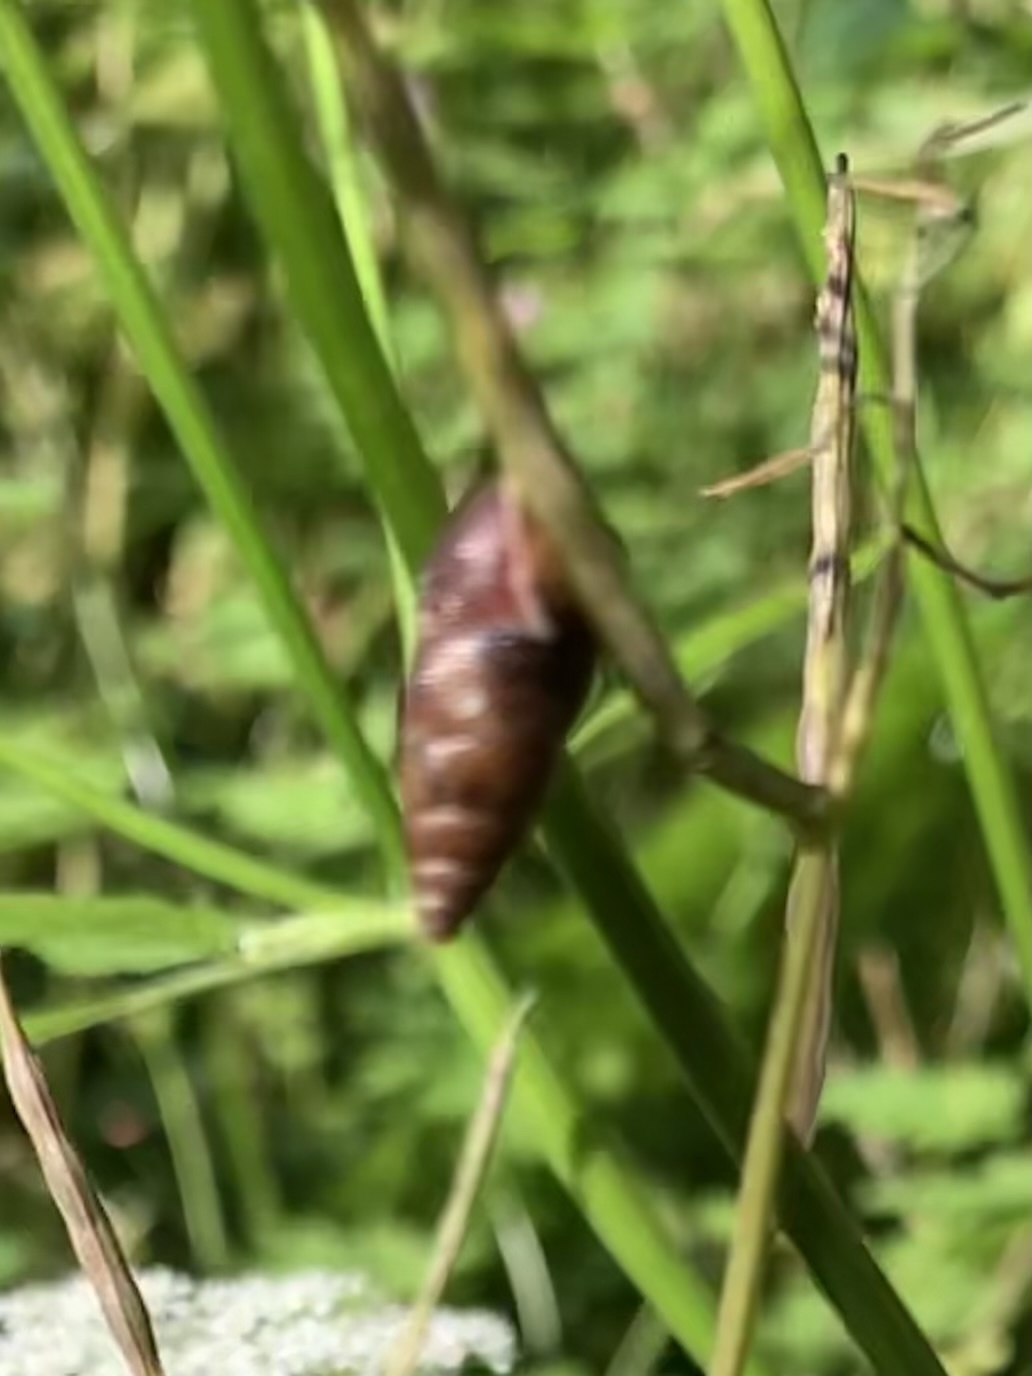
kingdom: Animalia
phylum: Mollusca
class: Gastropoda
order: Stylommatophora
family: Enidae
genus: Ena
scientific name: Ena montana
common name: Mountain bulin
